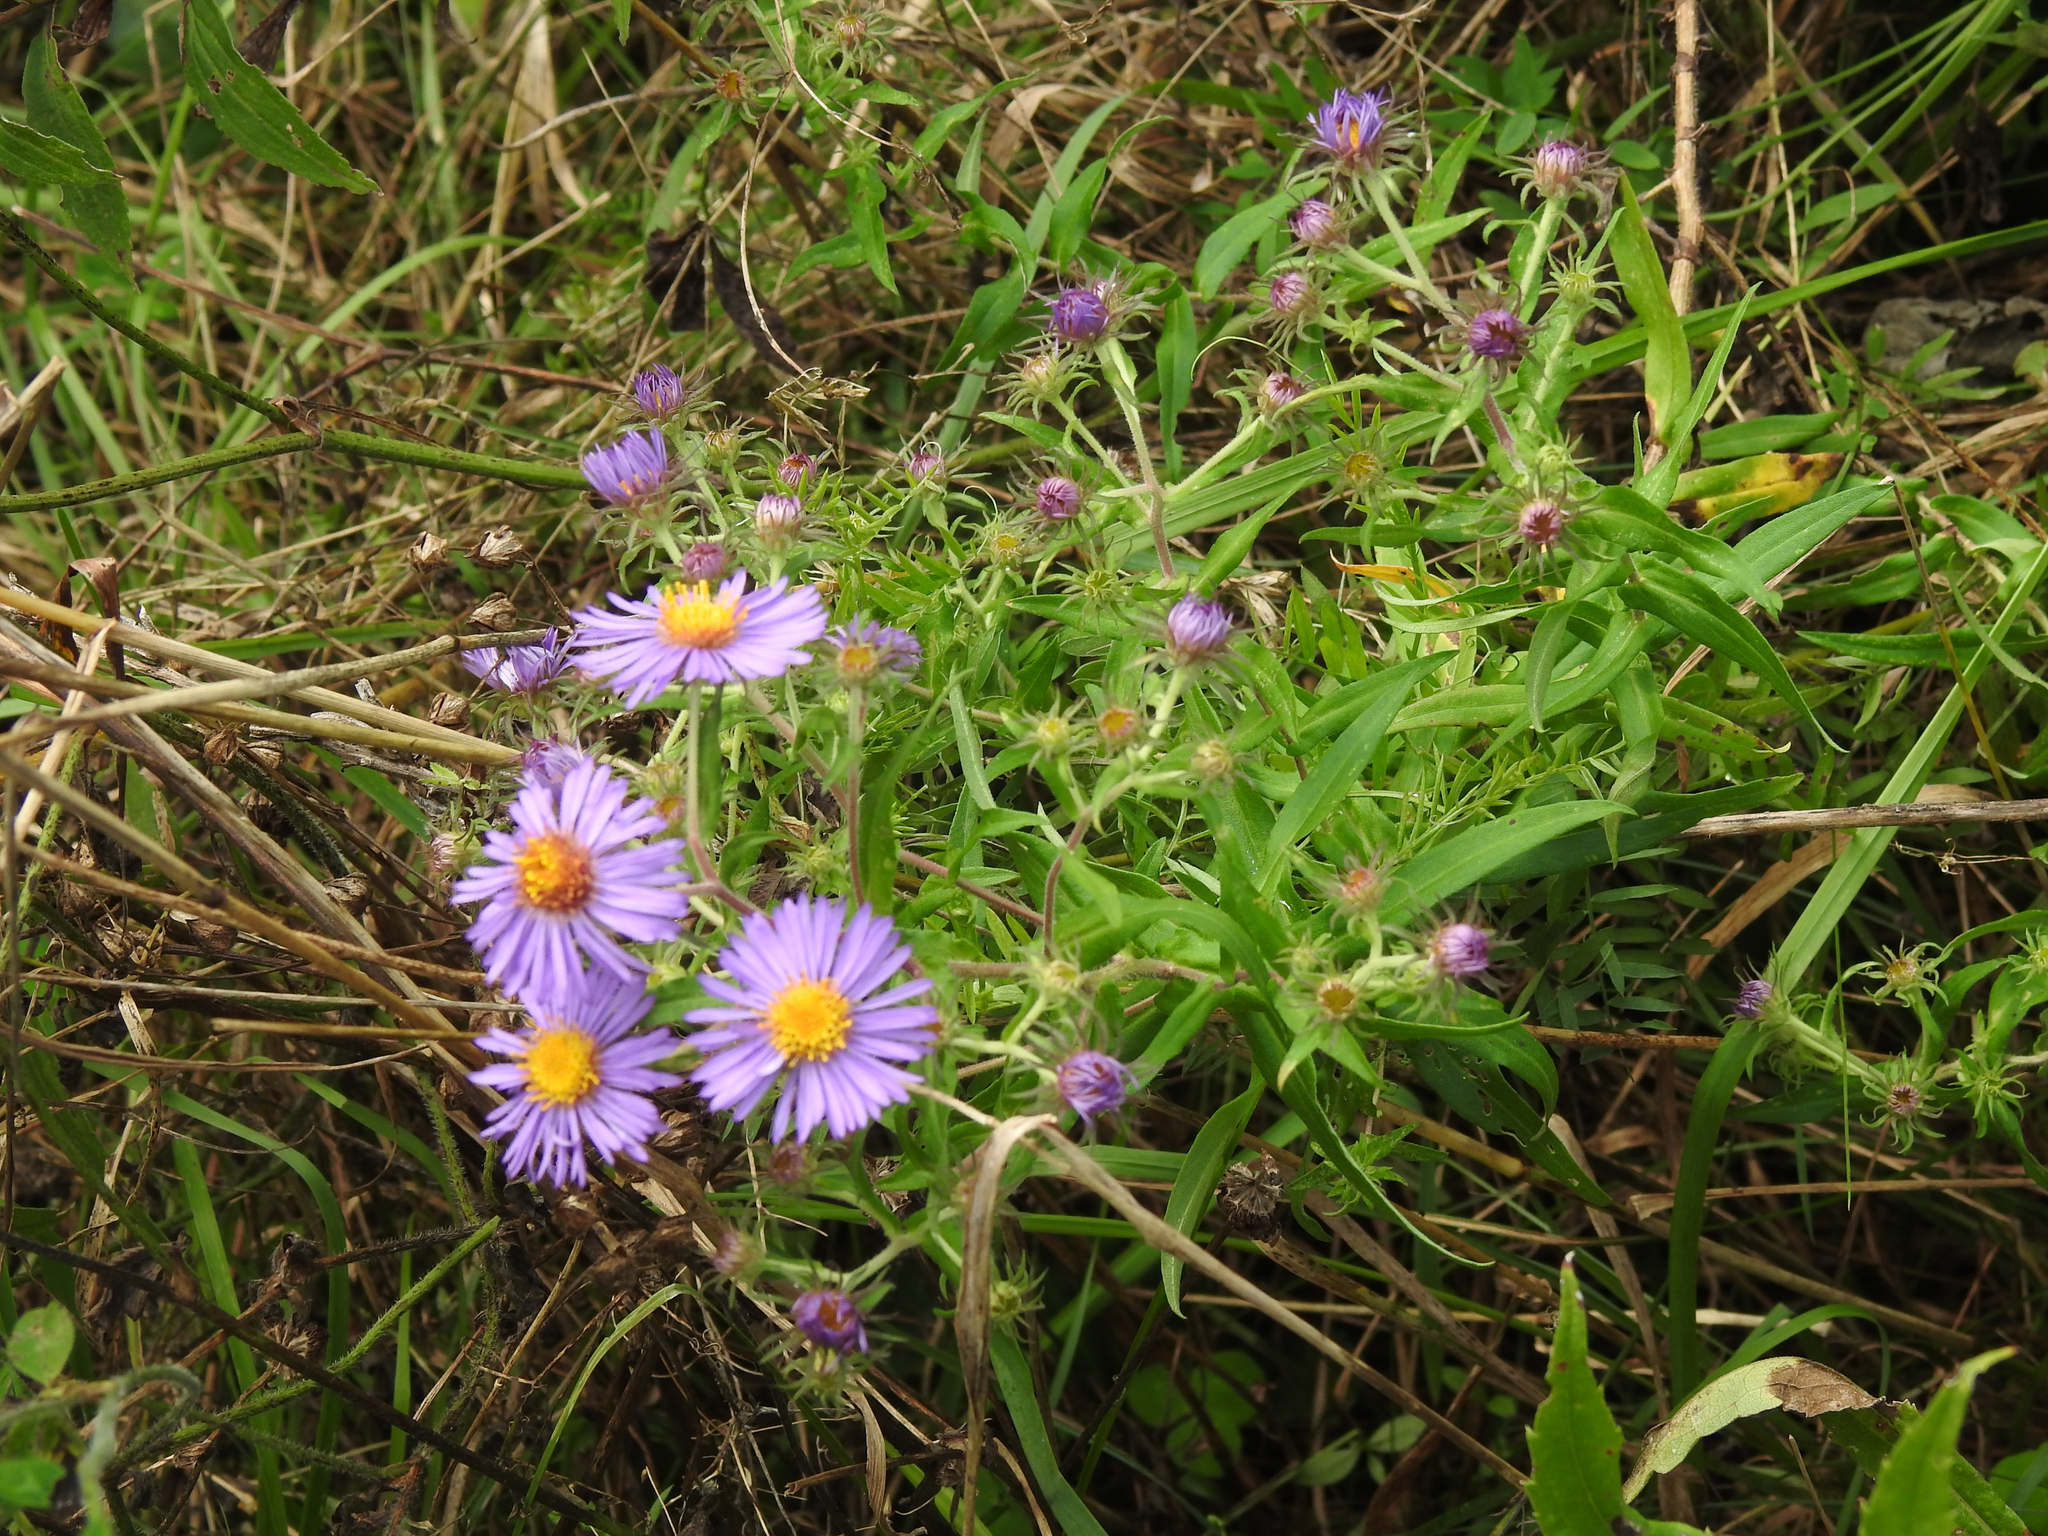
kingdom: Plantae
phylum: Tracheophyta
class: Magnoliopsida
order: Asterales
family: Asteraceae
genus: Symphyotrichum
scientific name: Symphyotrichum novae-angliae
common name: Michaelmas daisy
